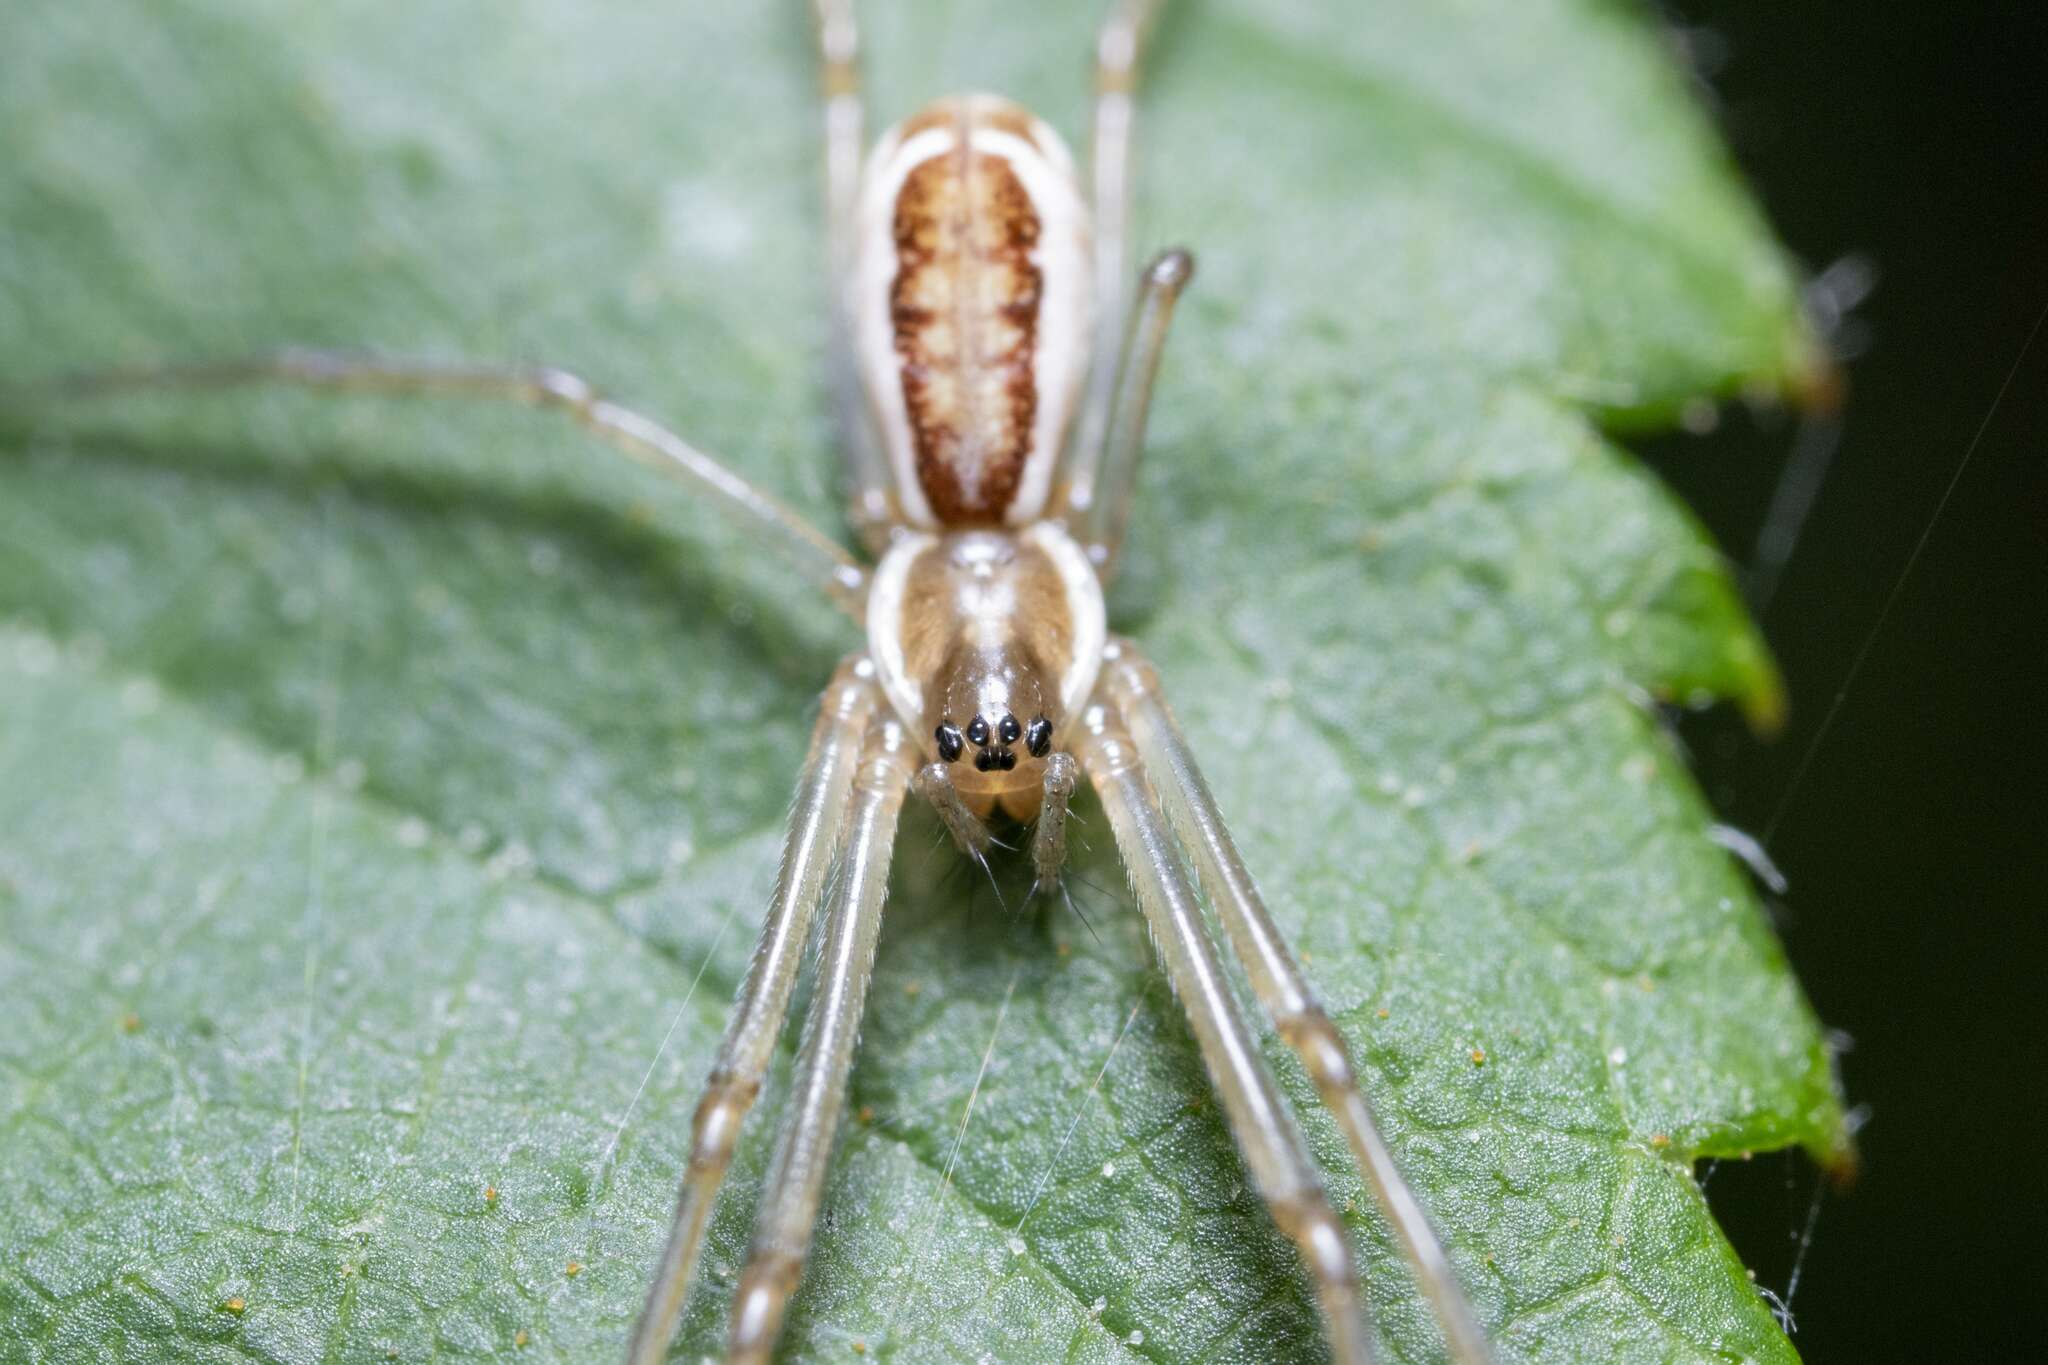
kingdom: Animalia
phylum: Arthropoda
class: Arachnida
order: Araneae
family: Linyphiidae
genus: Neriene
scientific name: Neriene radiata
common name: Filmy dome spider
